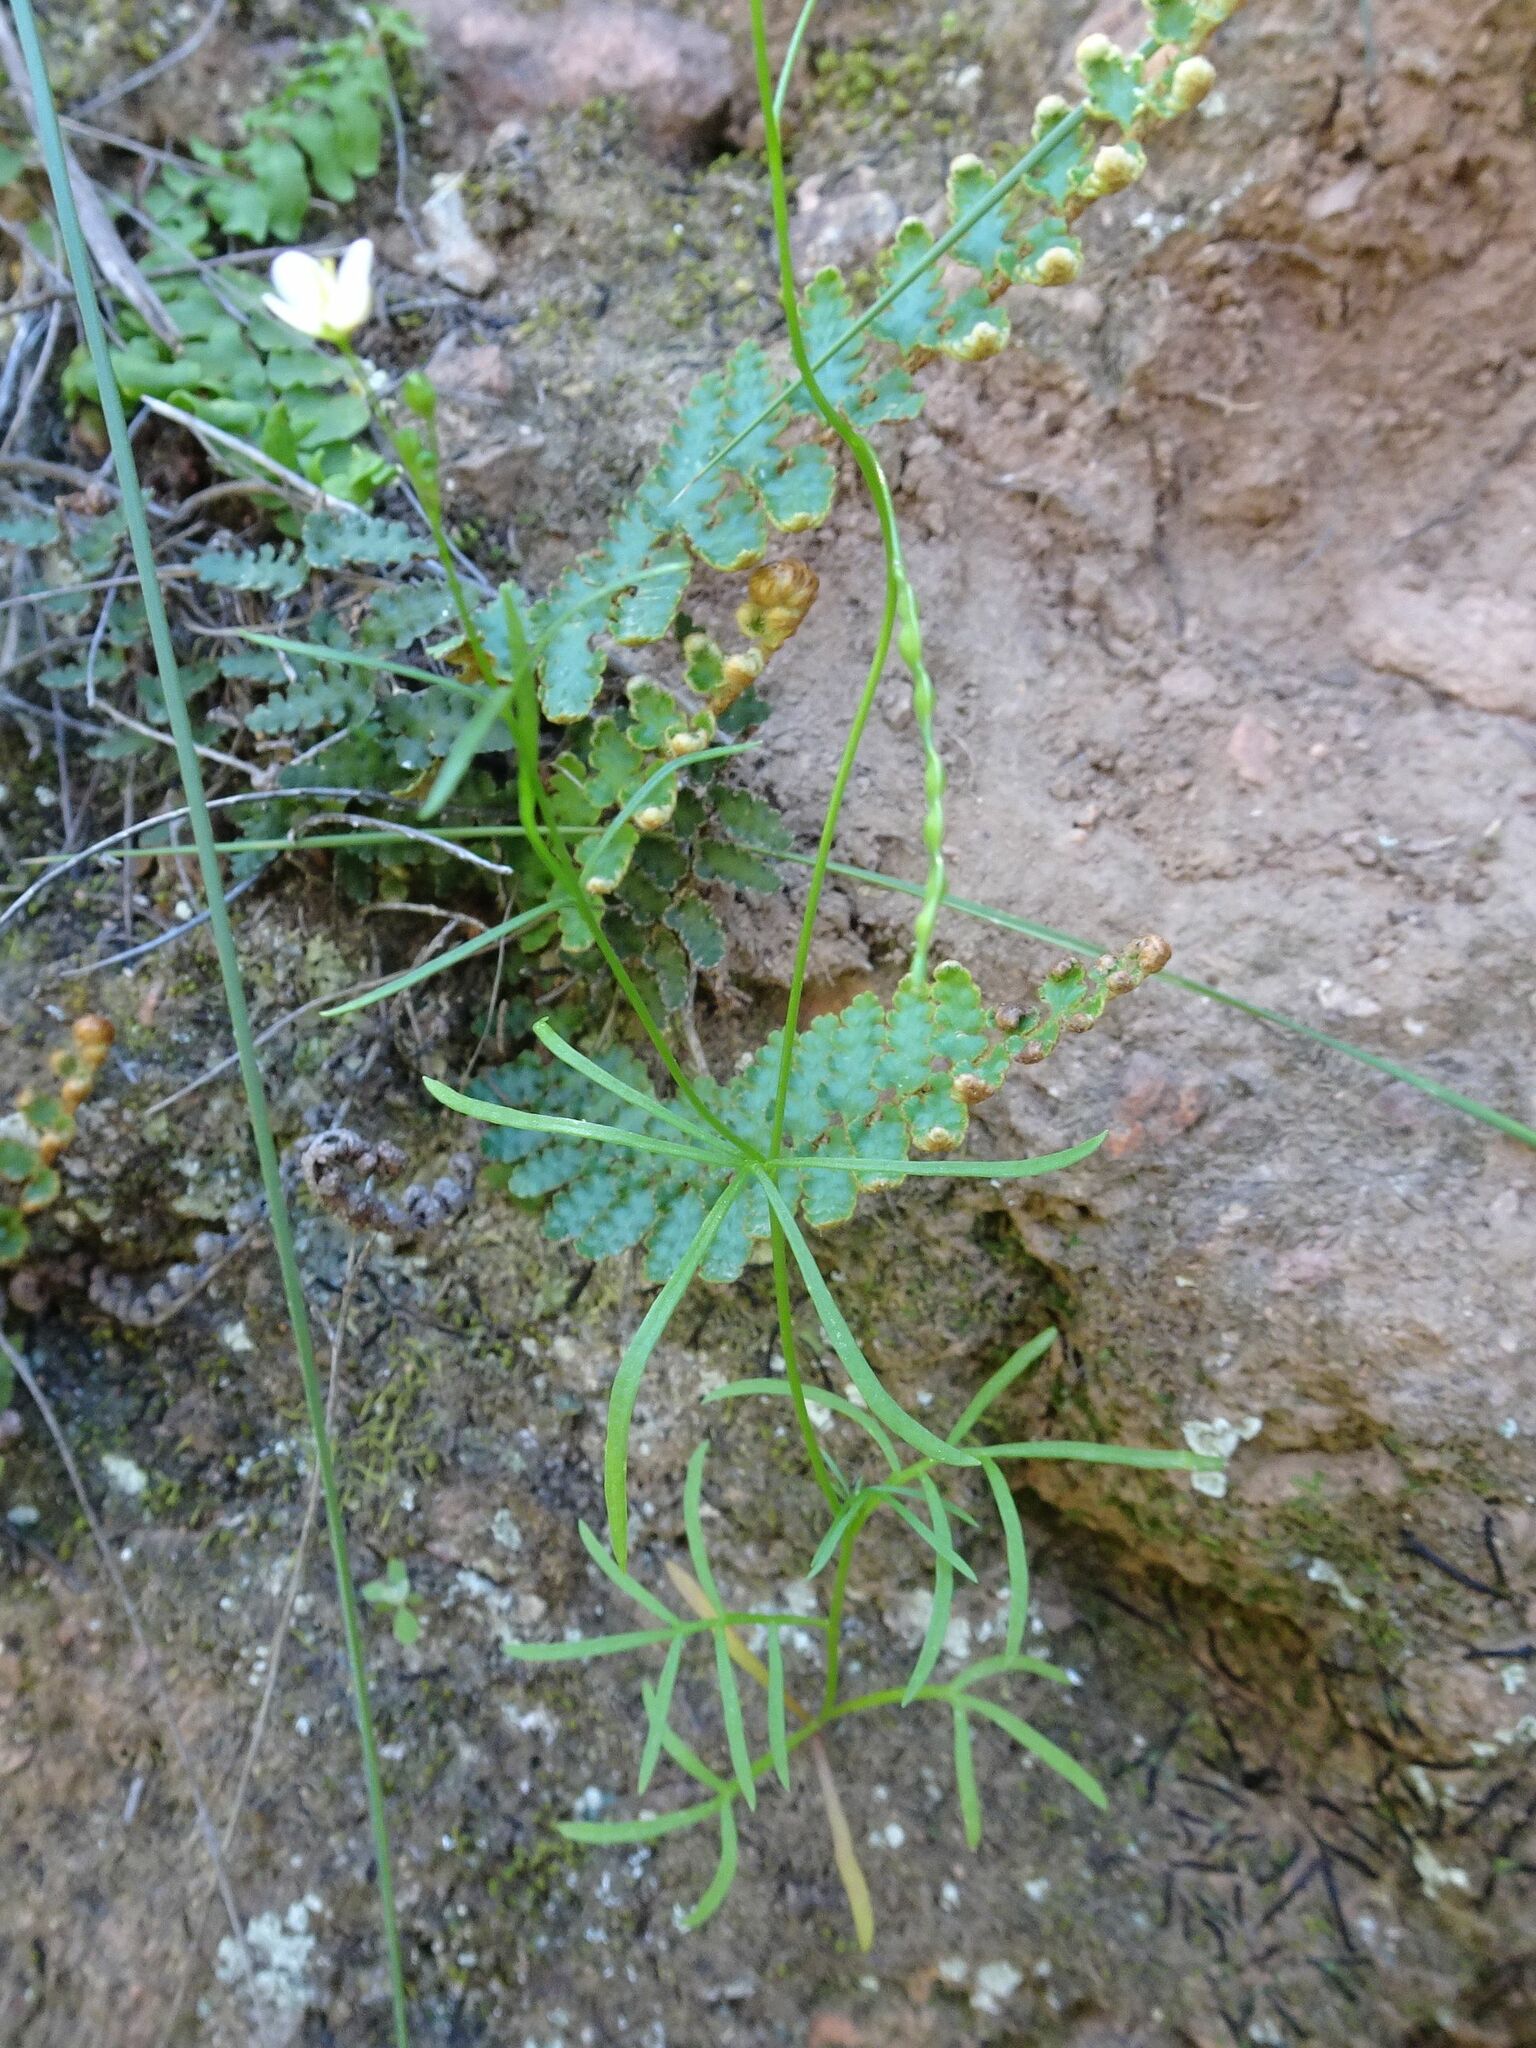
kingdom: Plantae
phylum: Tracheophyta
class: Magnoliopsida
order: Brassicales
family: Brassicaceae
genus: Heliophila
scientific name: Heliophila pendula
